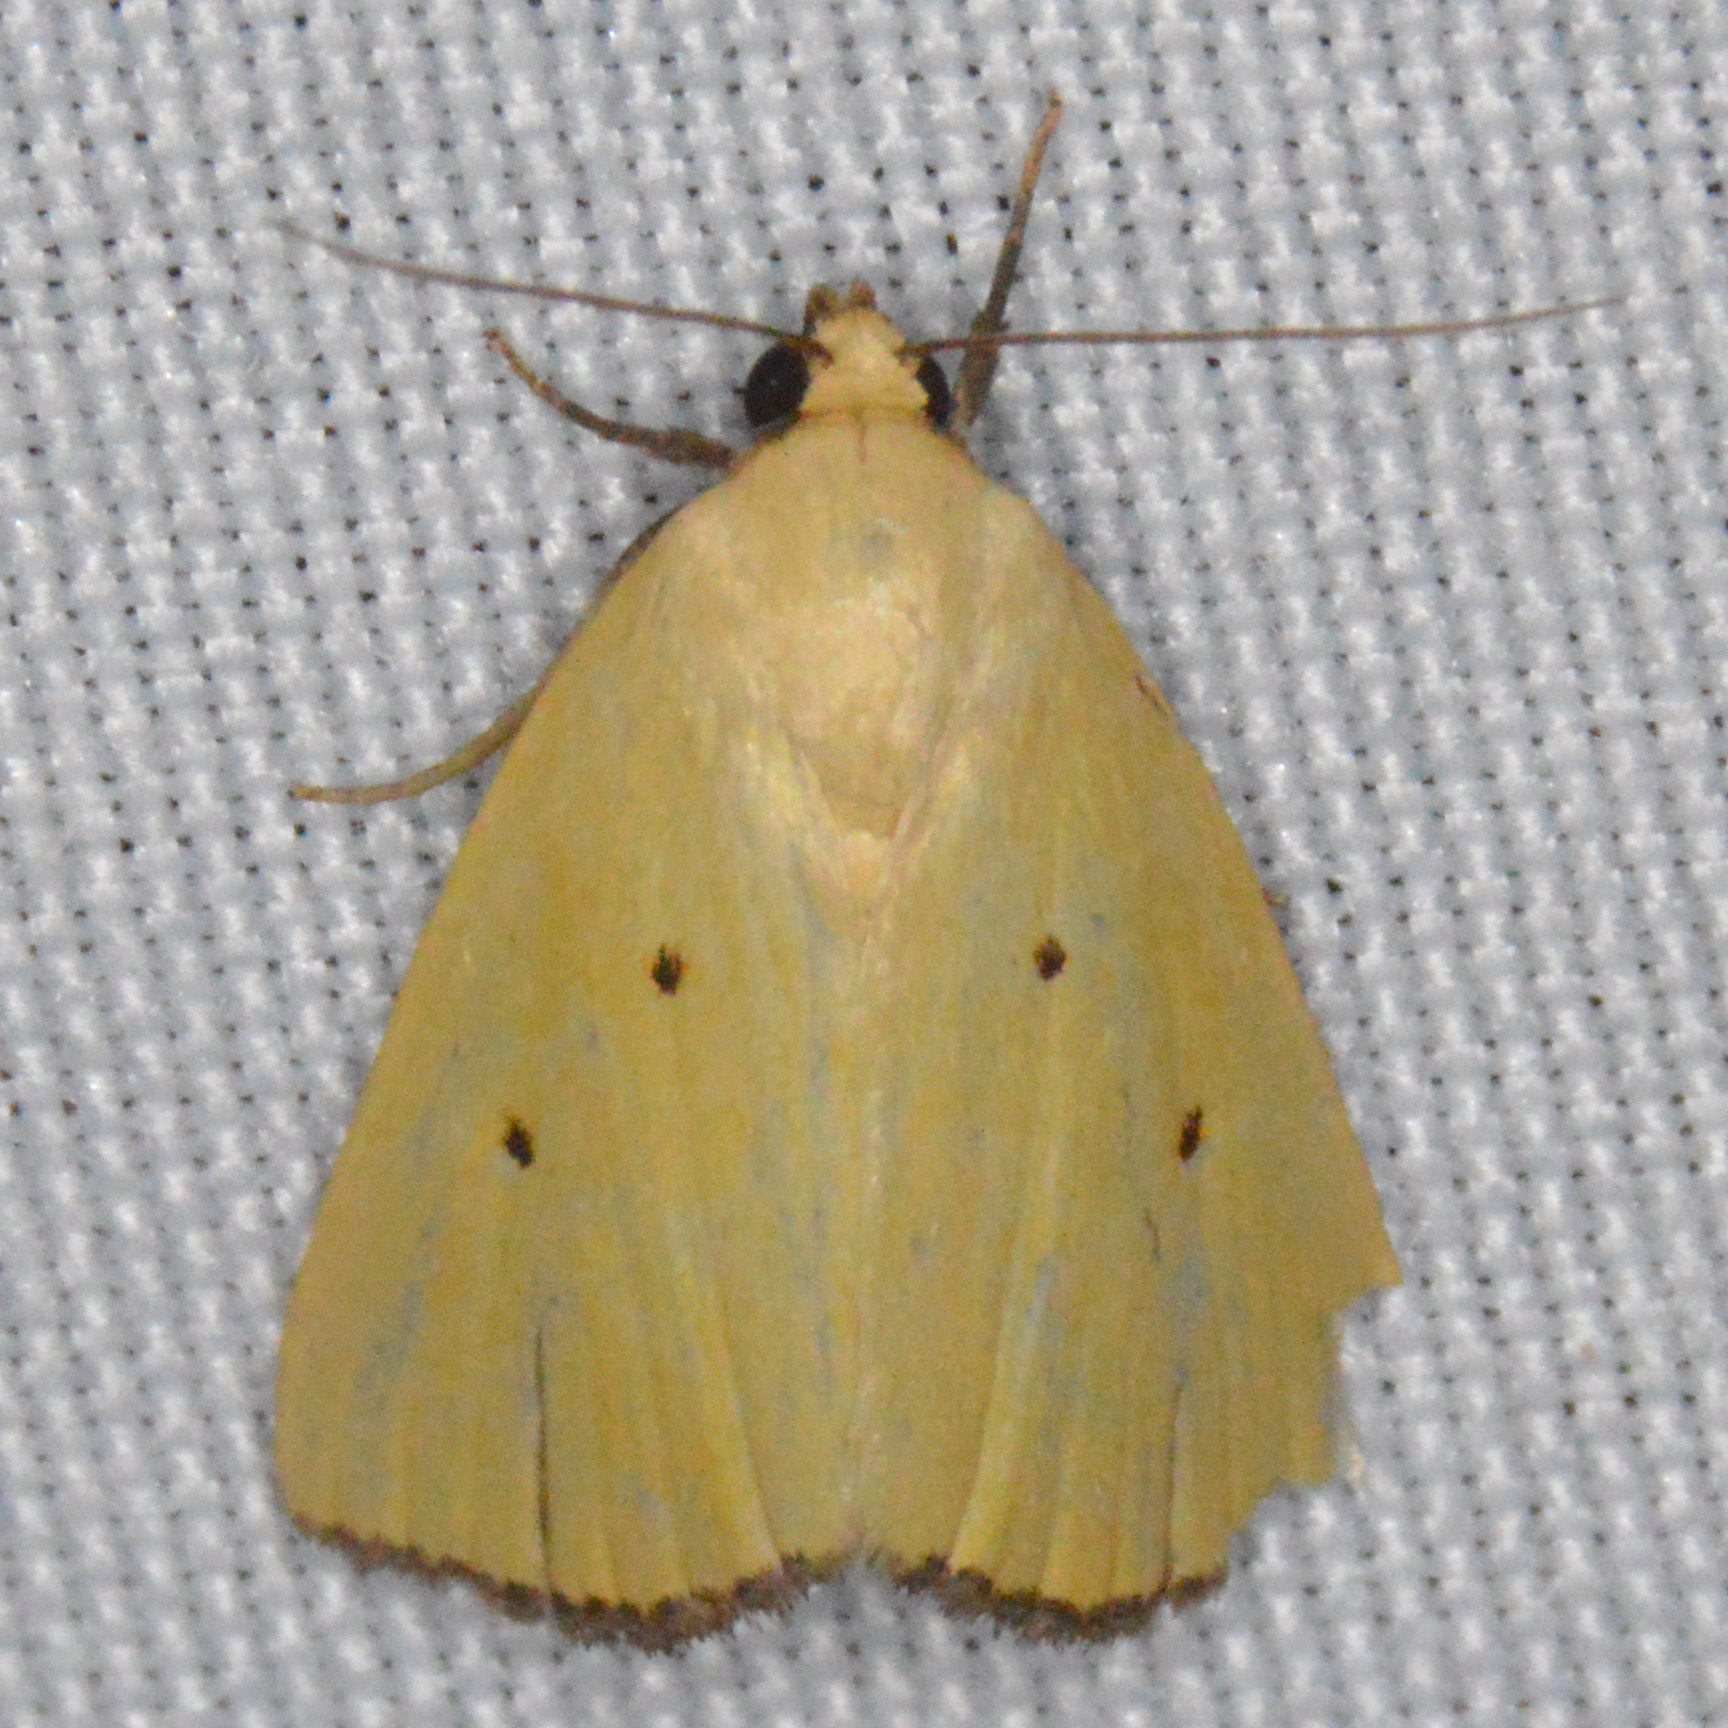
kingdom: Animalia
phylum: Arthropoda
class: Insecta
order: Lepidoptera
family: Noctuidae
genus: Marimatha
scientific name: Marimatha nigrofimbria
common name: Black-bordered lemon moth
